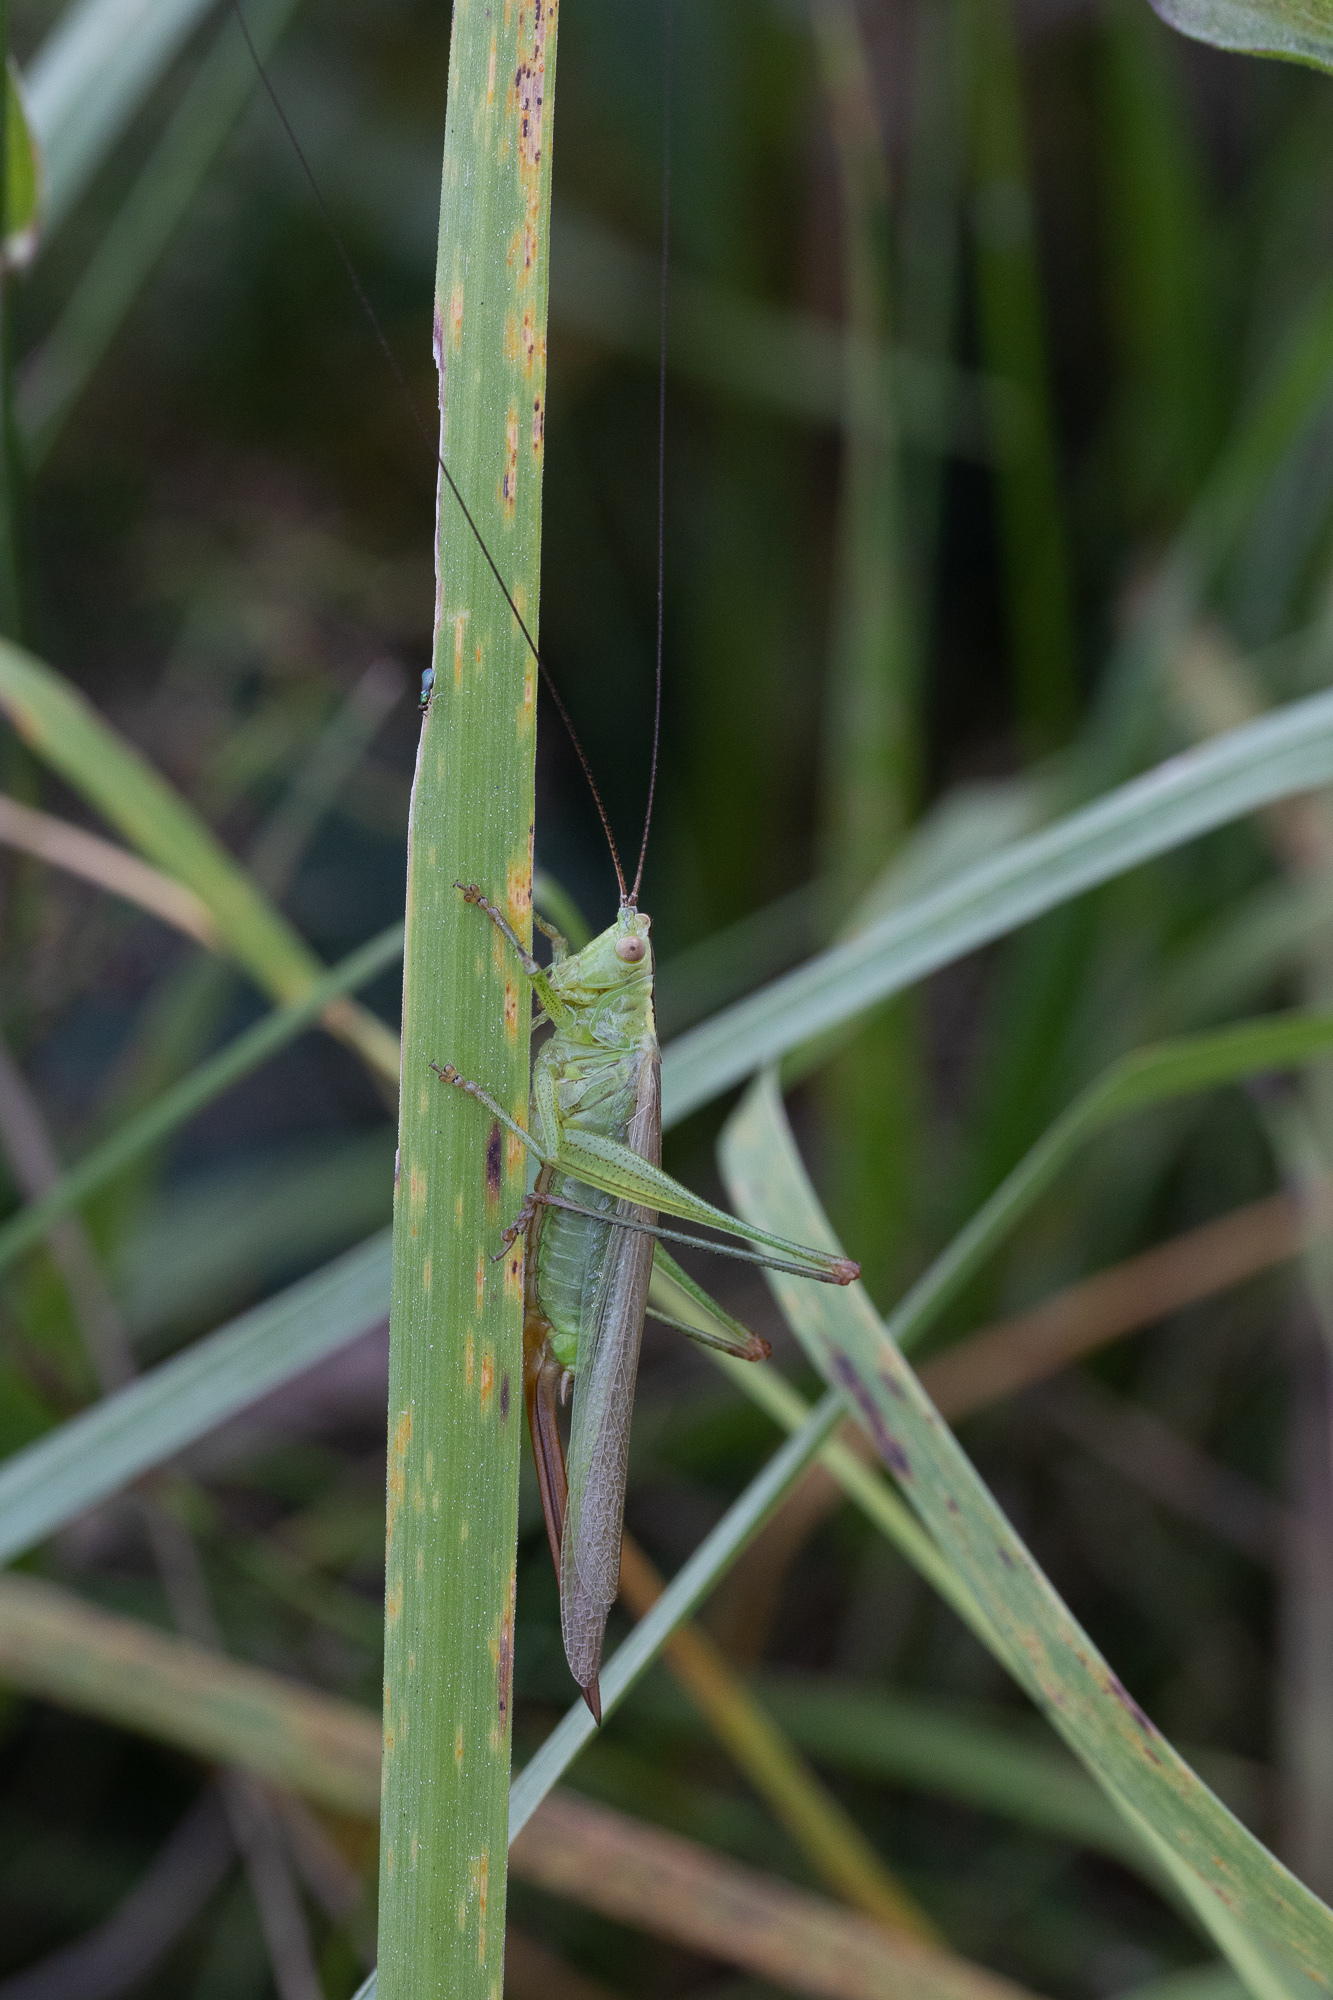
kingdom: Animalia
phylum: Arthropoda
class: Insecta
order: Orthoptera
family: Tettigoniidae
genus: Conocephalus
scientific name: Conocephalus fuscus
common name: Long-winged conehead
